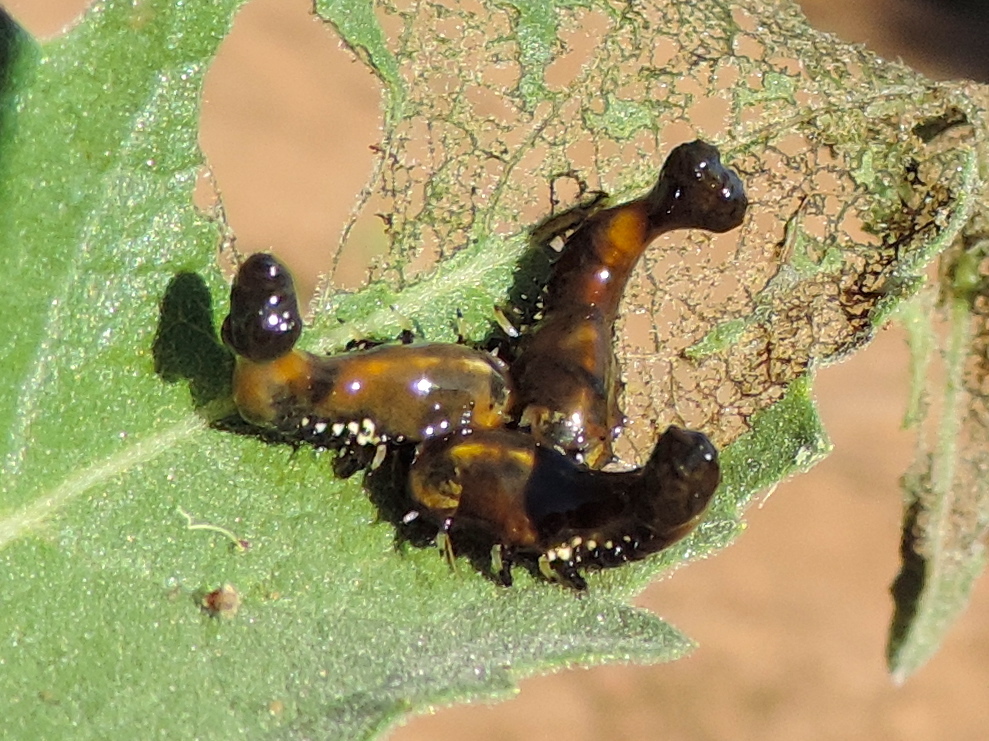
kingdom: Animalia
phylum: Arthropoda
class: Insecta
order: Coleoptera
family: Chrysomelidae
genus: Physonota
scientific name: Physonota arizonae
